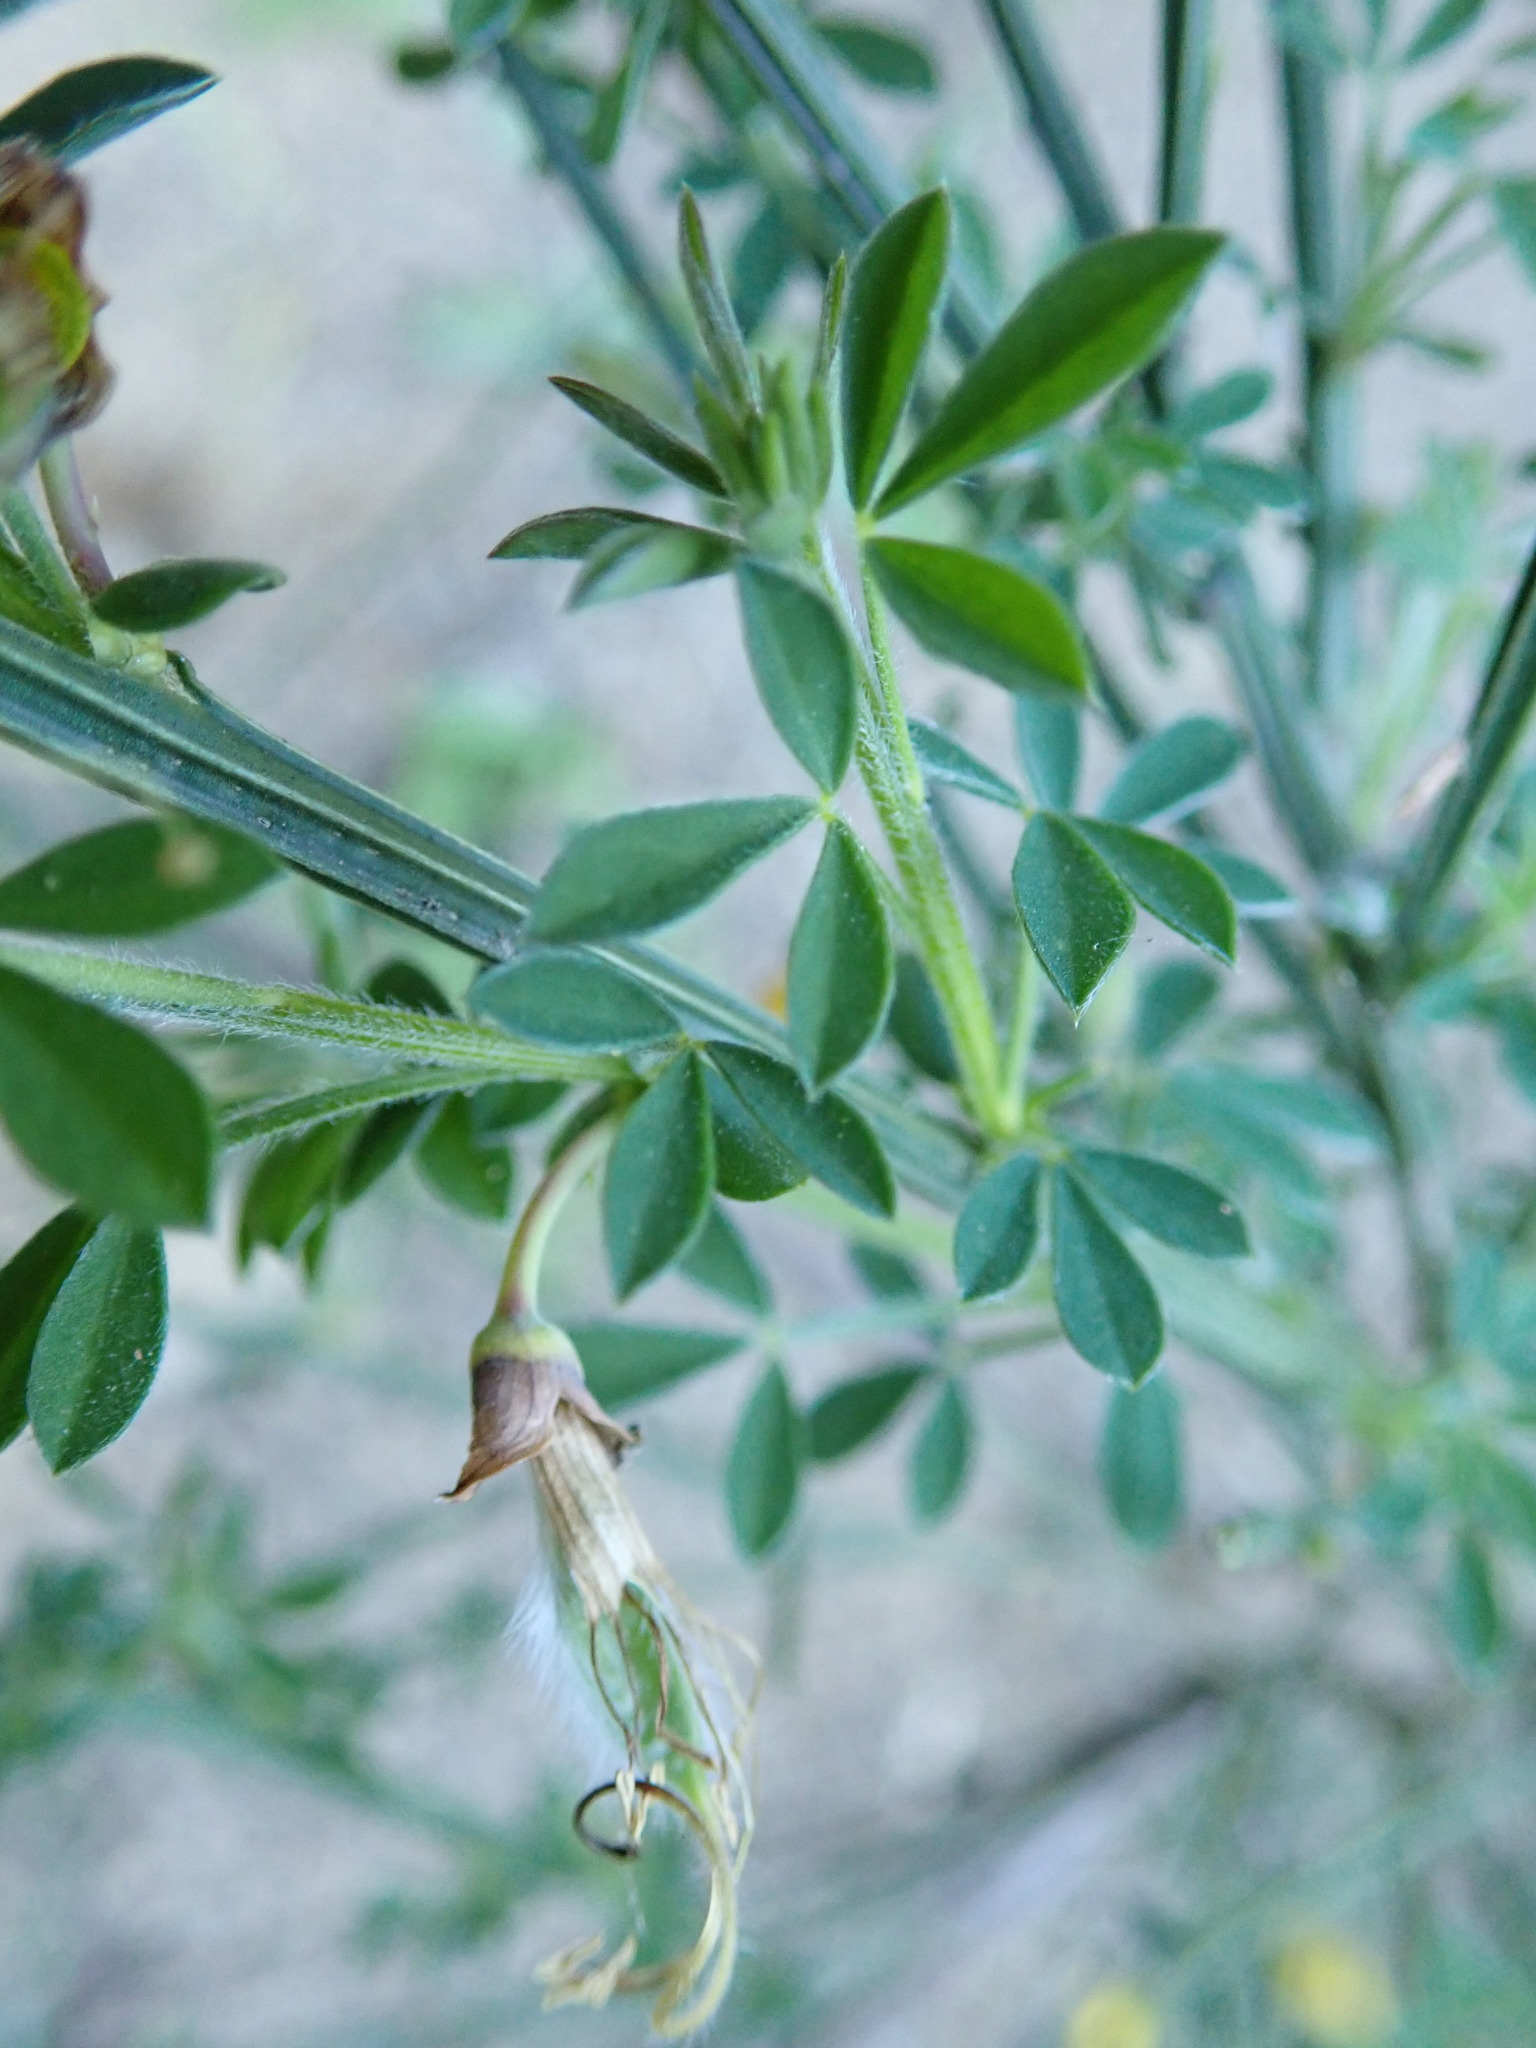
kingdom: Plantae
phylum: Tracheophyta
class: Magnoliopsida
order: Fabales
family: Fabaceae
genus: Cytisus
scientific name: Cytisus scoparius
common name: Scotch broom
